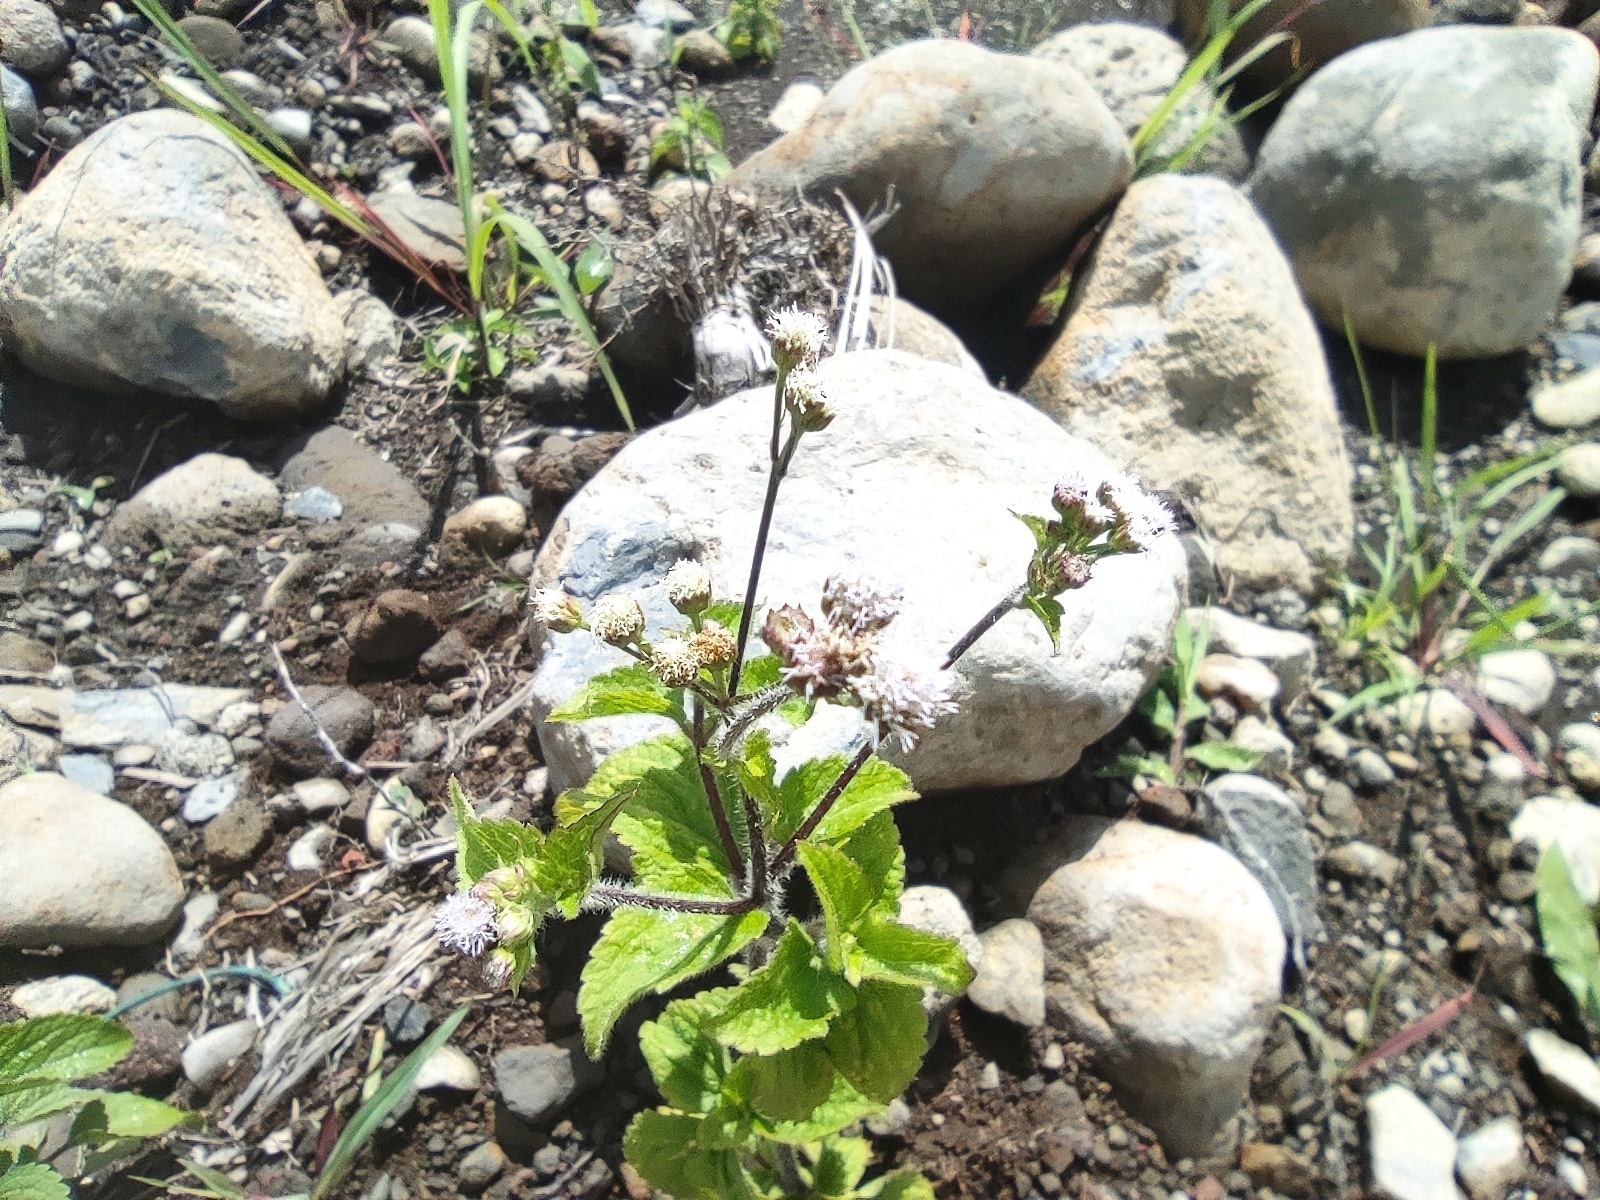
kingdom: Plantae
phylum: Tracheophyta
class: Magnoliopsida
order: Asterales
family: Asteraceae
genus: Ageratum
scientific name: Ageratum conyzoides
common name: Tropical whiteweed
